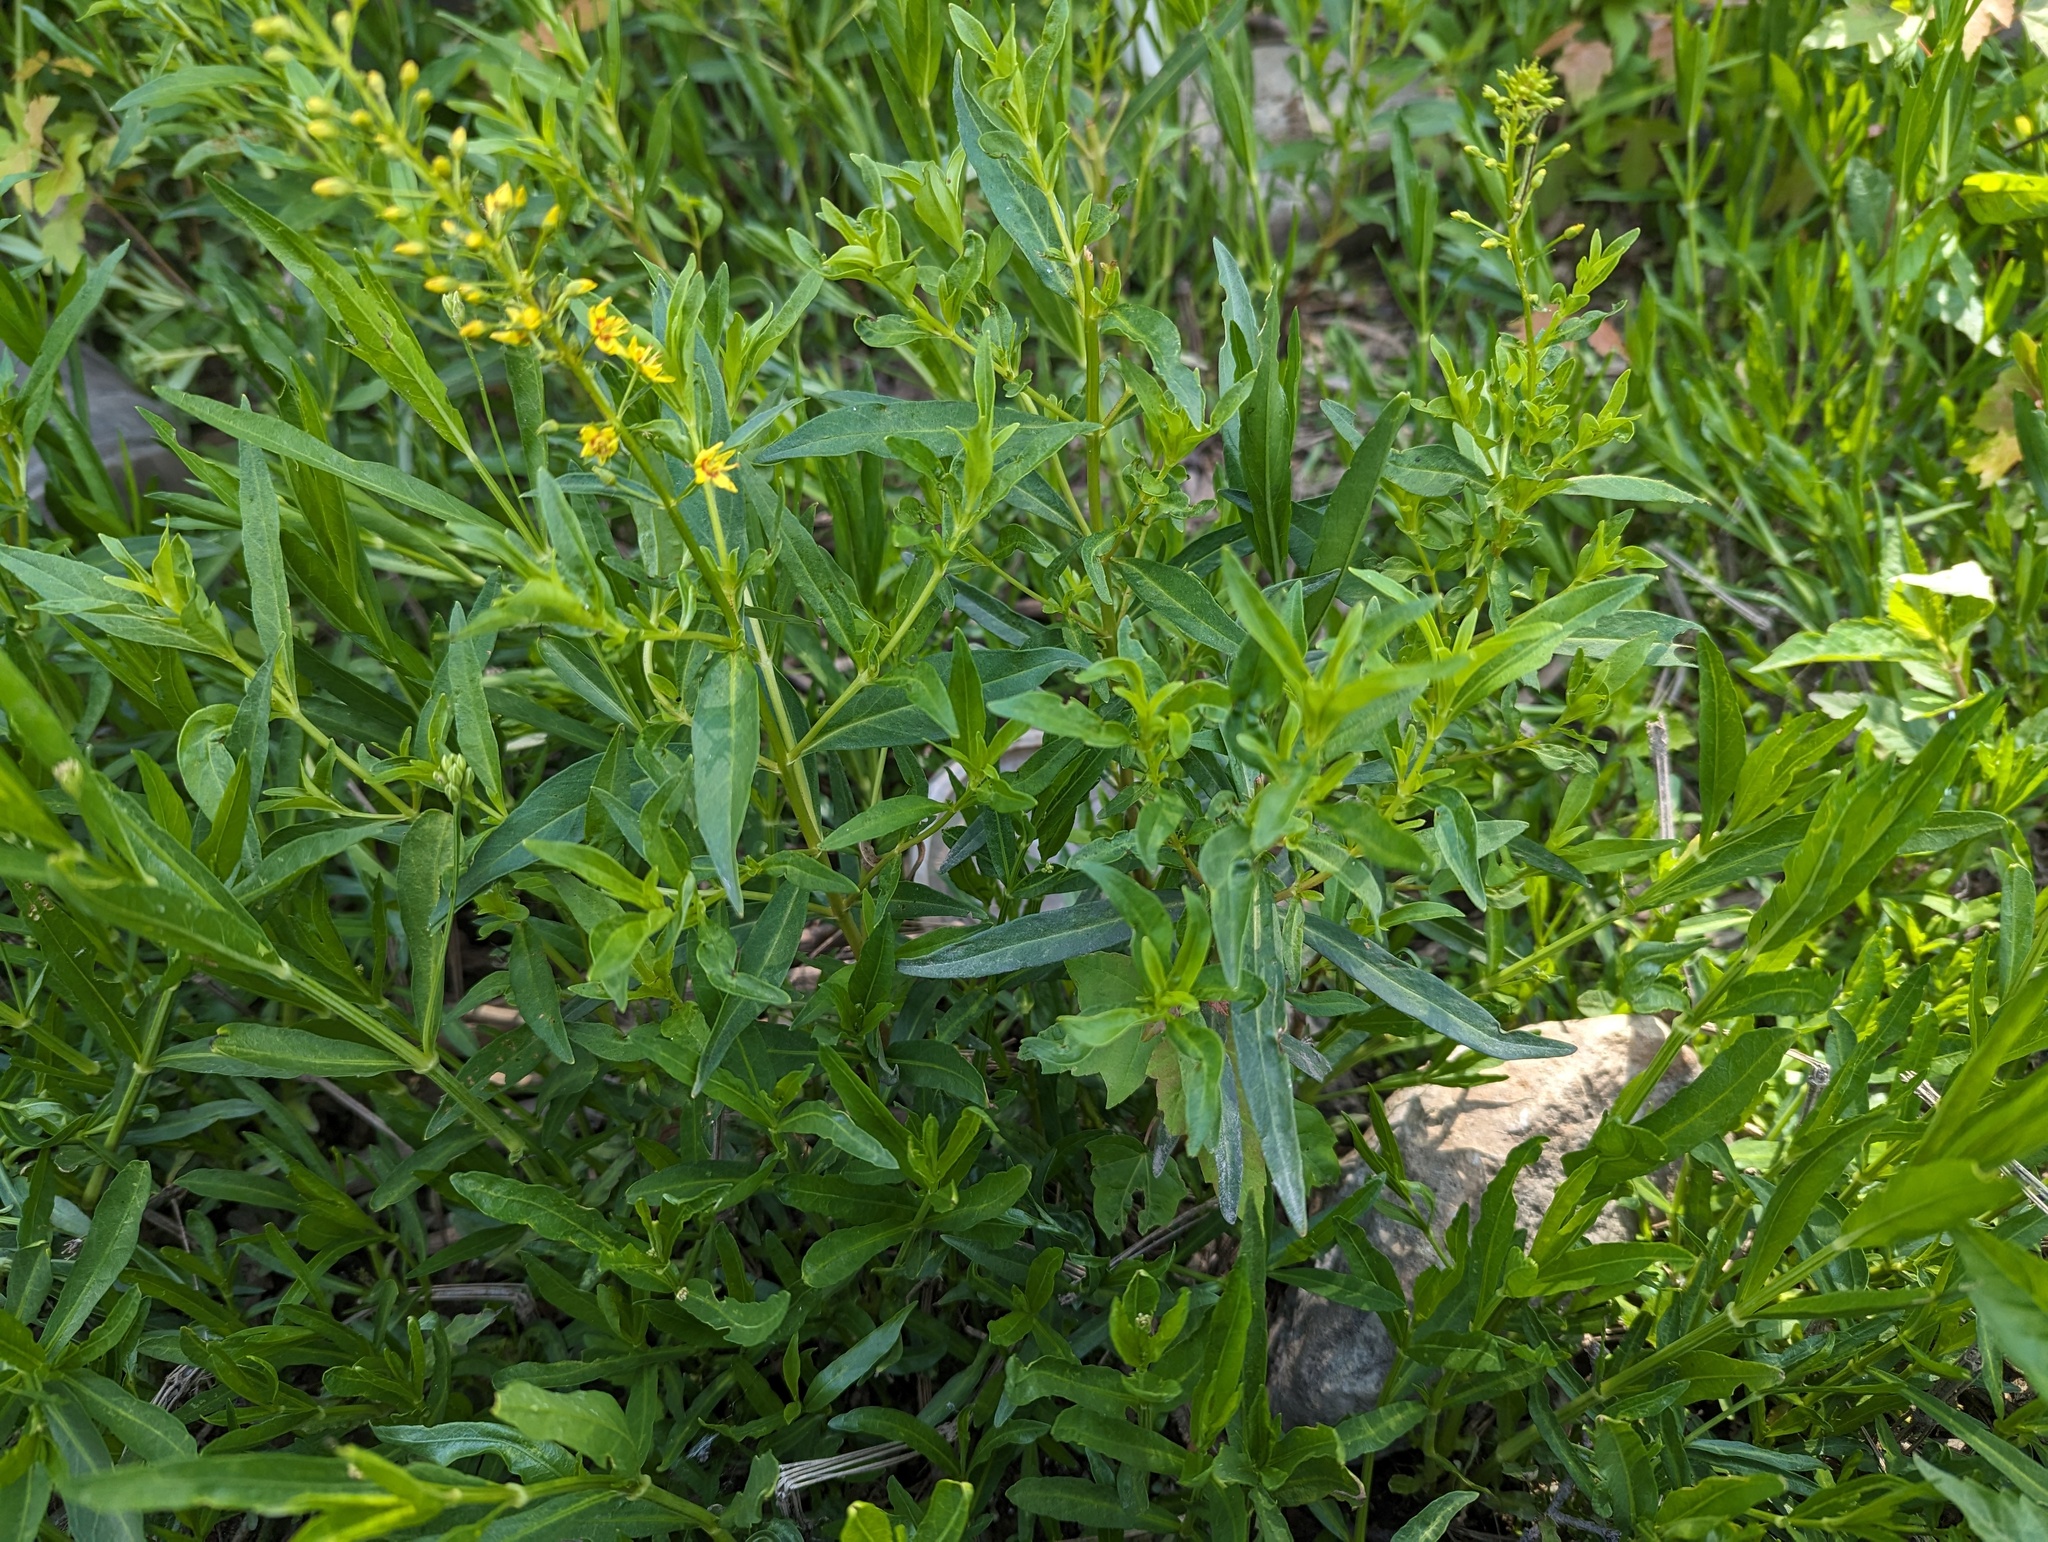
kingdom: Plantae
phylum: Tracheophyta
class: Magnoliopsida
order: Ericales
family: Primulaceae
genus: Lysimachia
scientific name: Lysimachia terrestris
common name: Lake loosestrife
